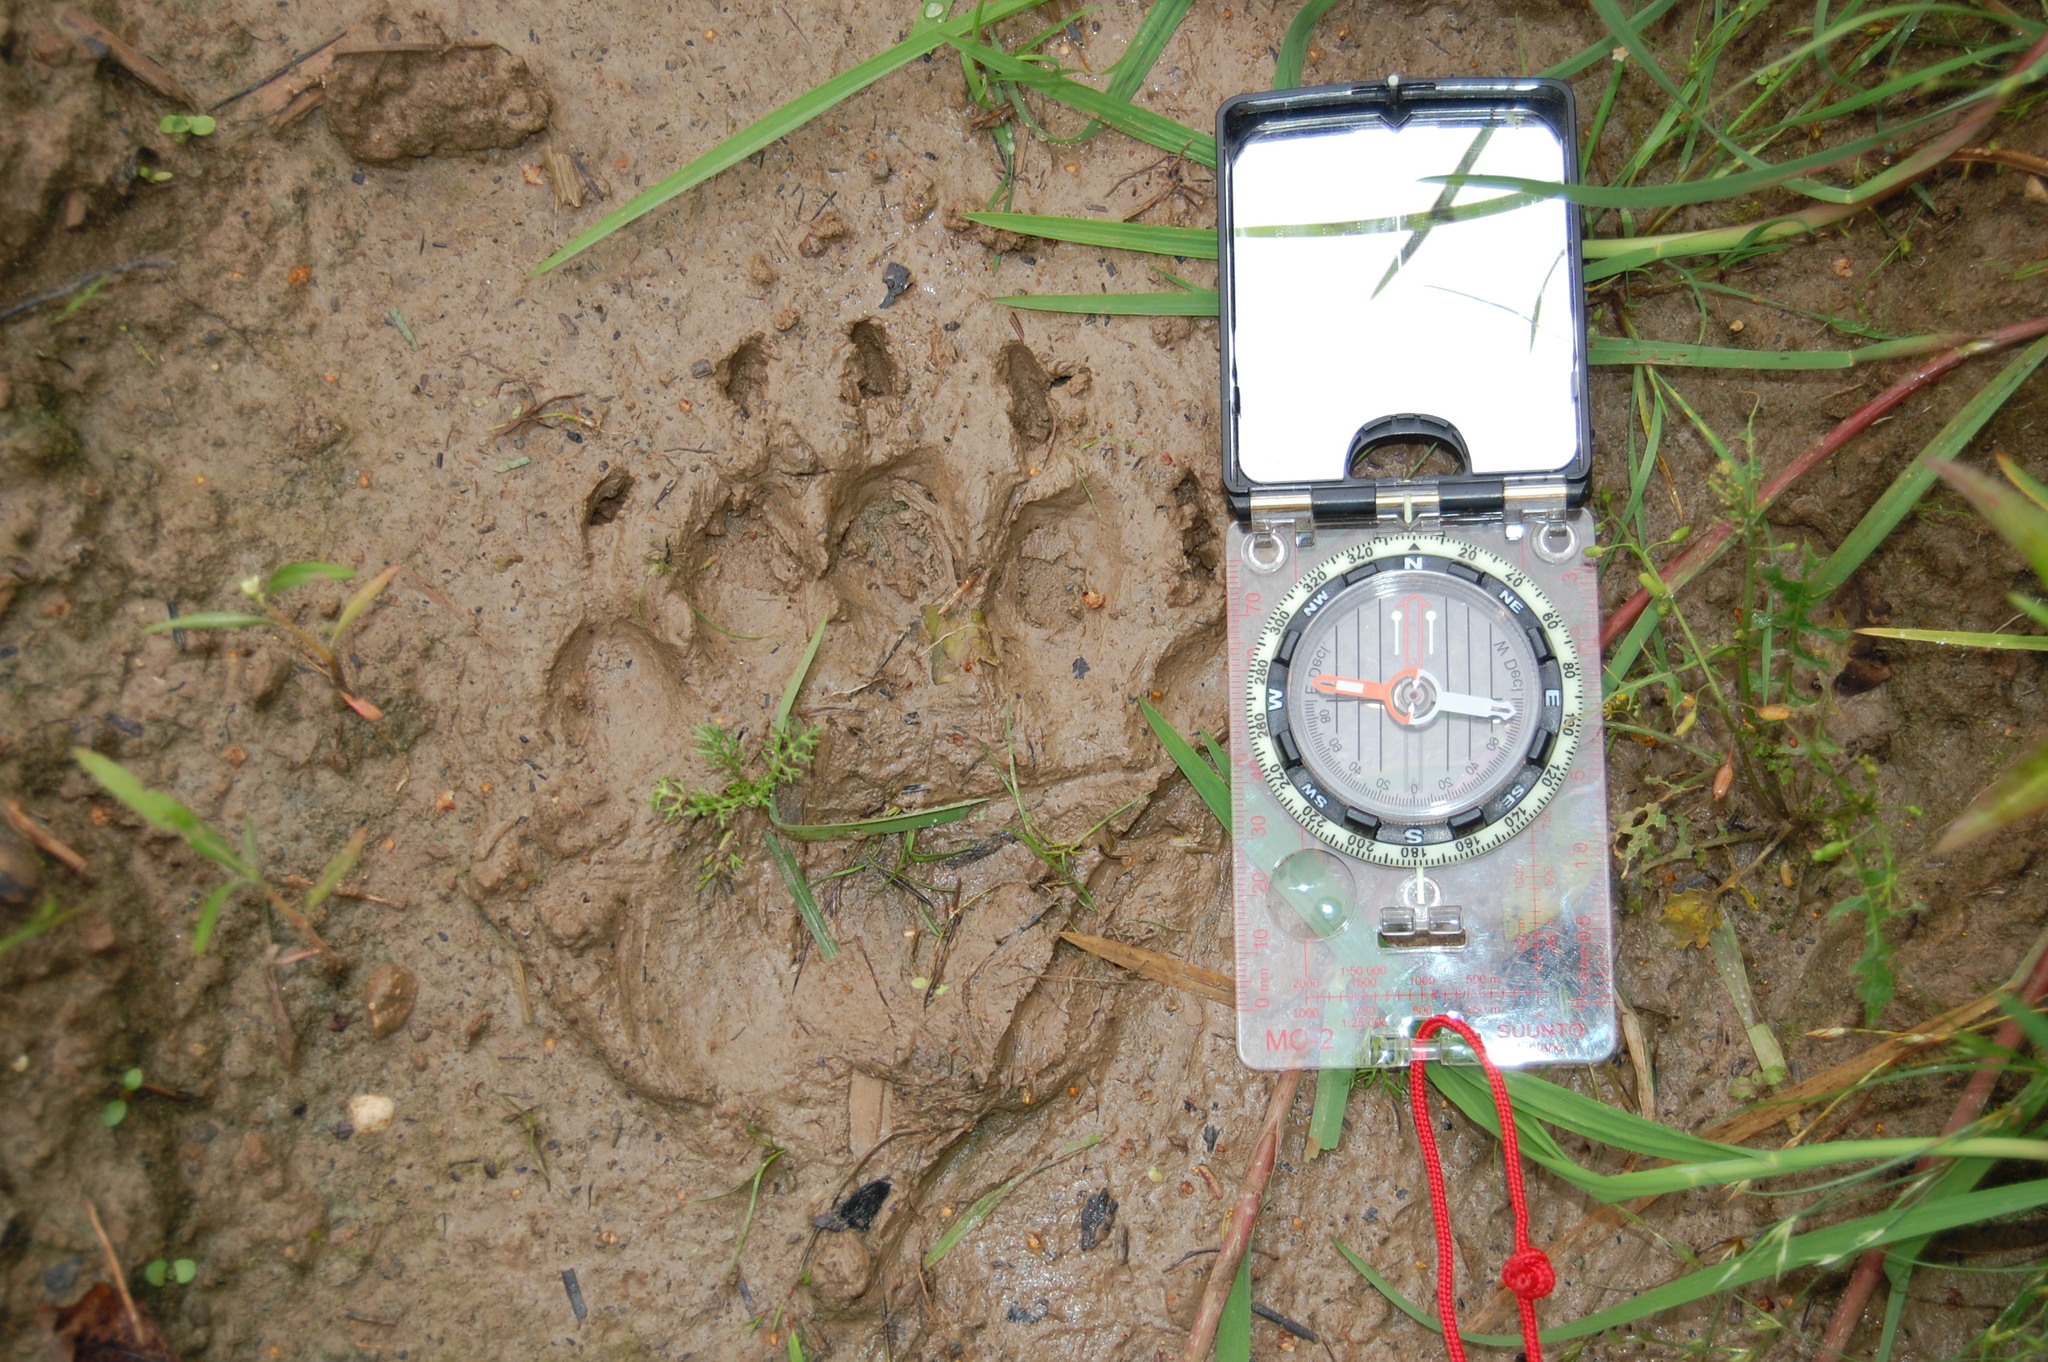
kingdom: Animalia
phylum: Chordata
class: Mammalia
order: Carnivora
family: Ursidae
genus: Ursus
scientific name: Ursus arctos
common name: Brown bear
